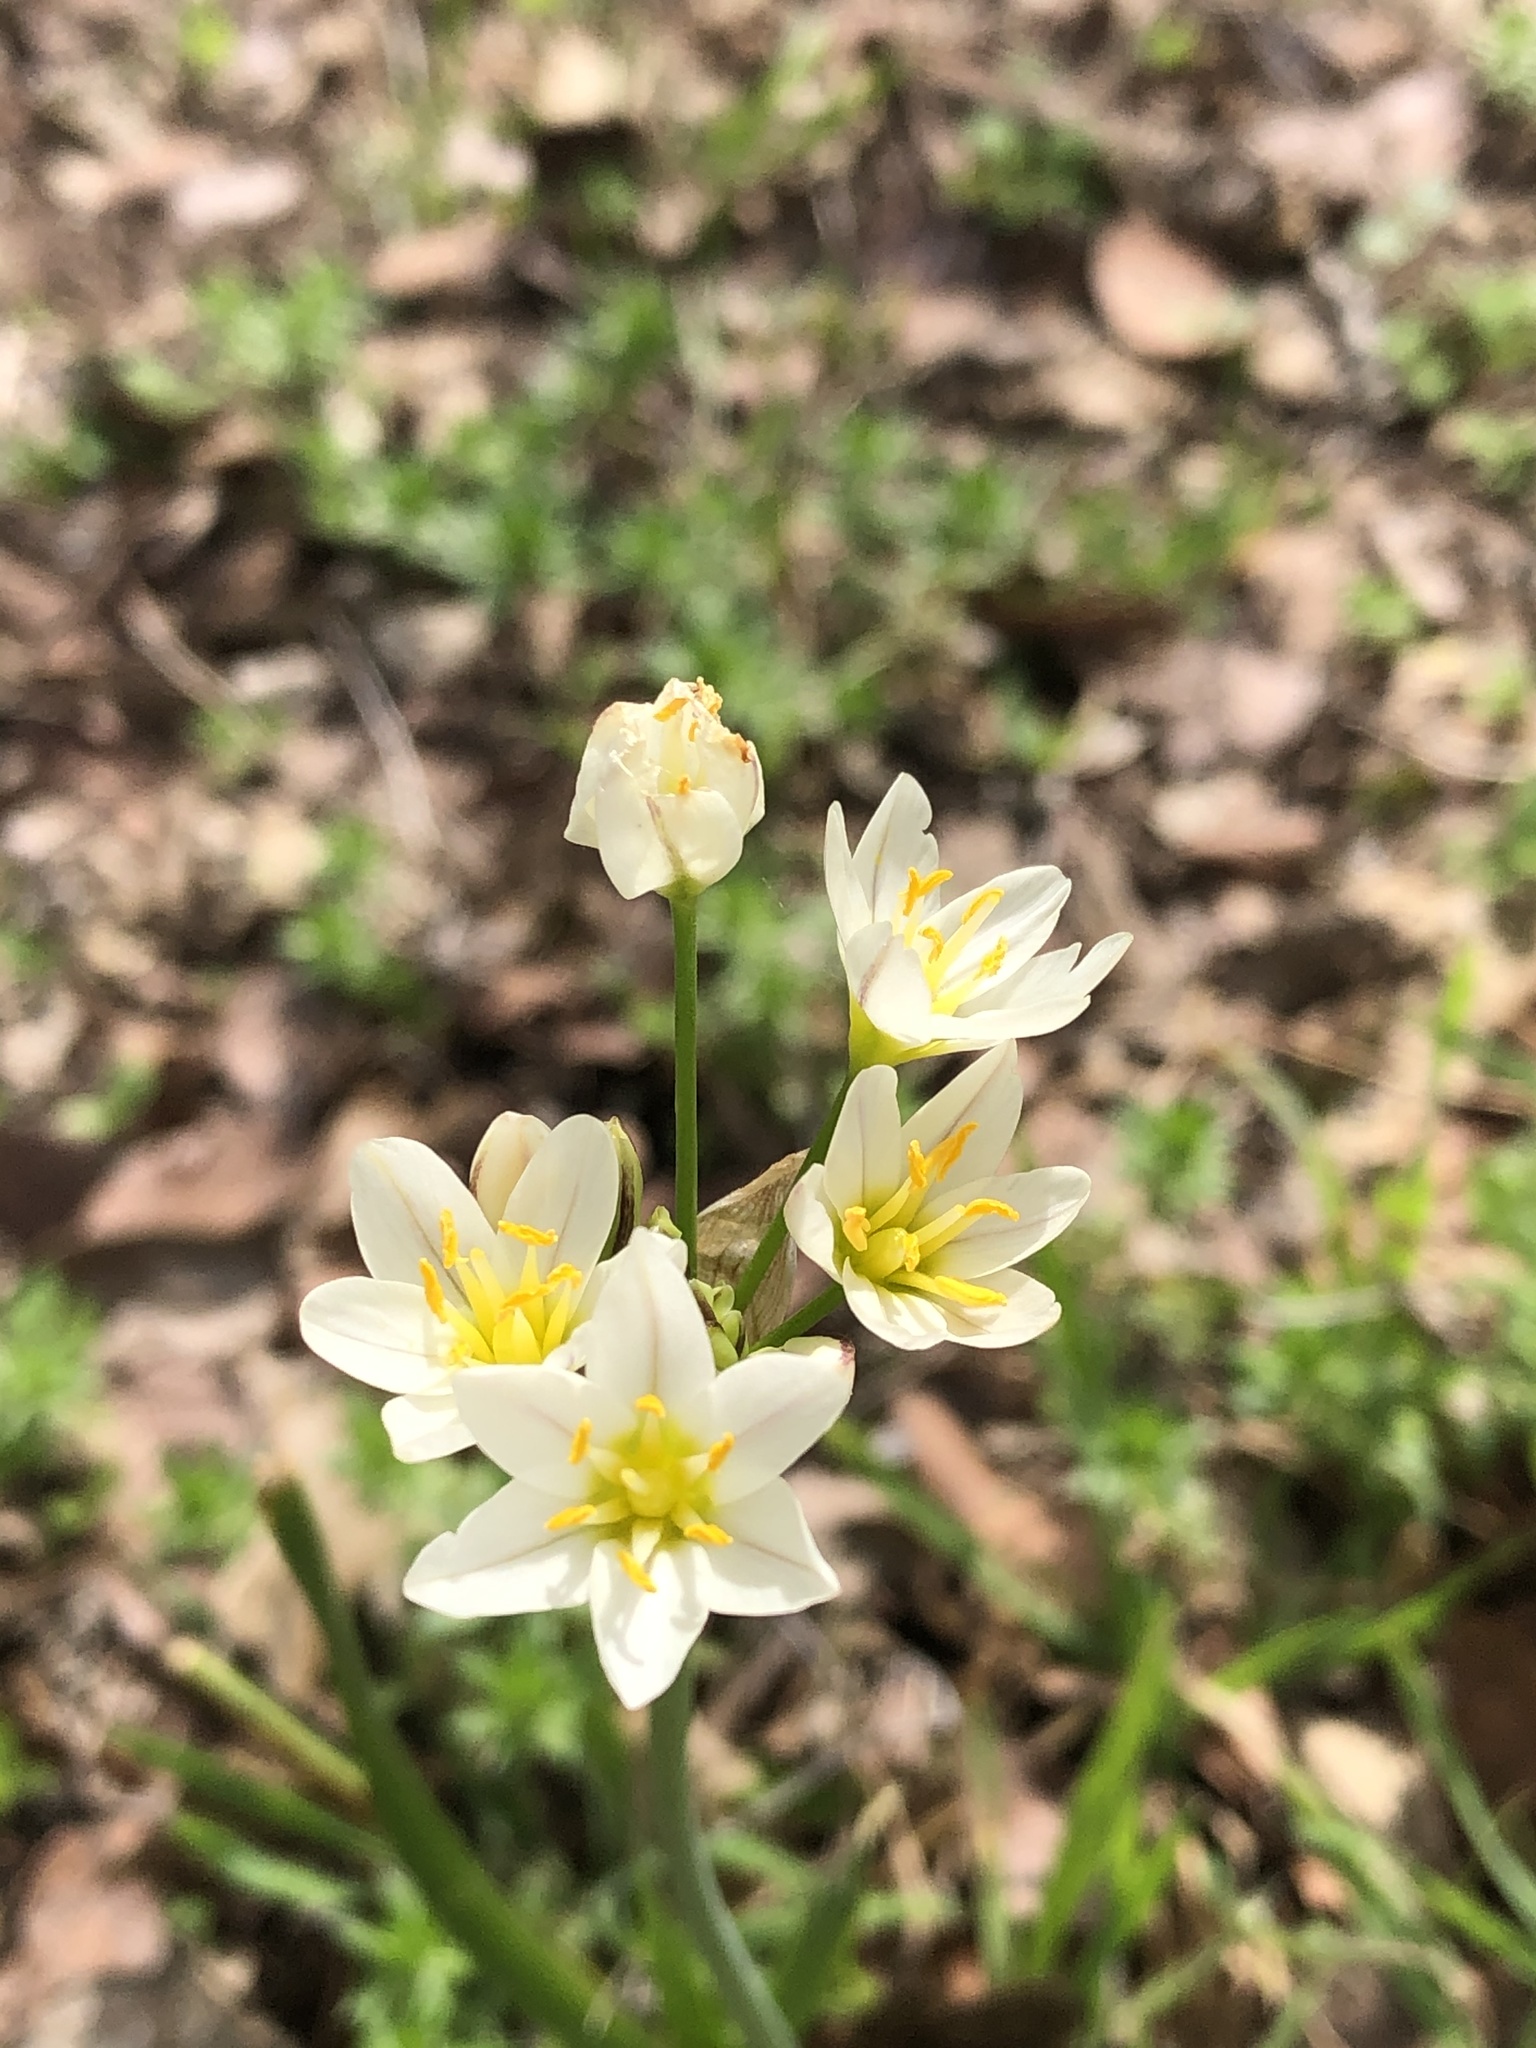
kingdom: Plantae
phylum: Tracheophyta
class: Liliopsida
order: Asparagales
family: Amaryllidaceae
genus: Nothoscordum
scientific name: Nothoscordum bivalve
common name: Crow-poison
